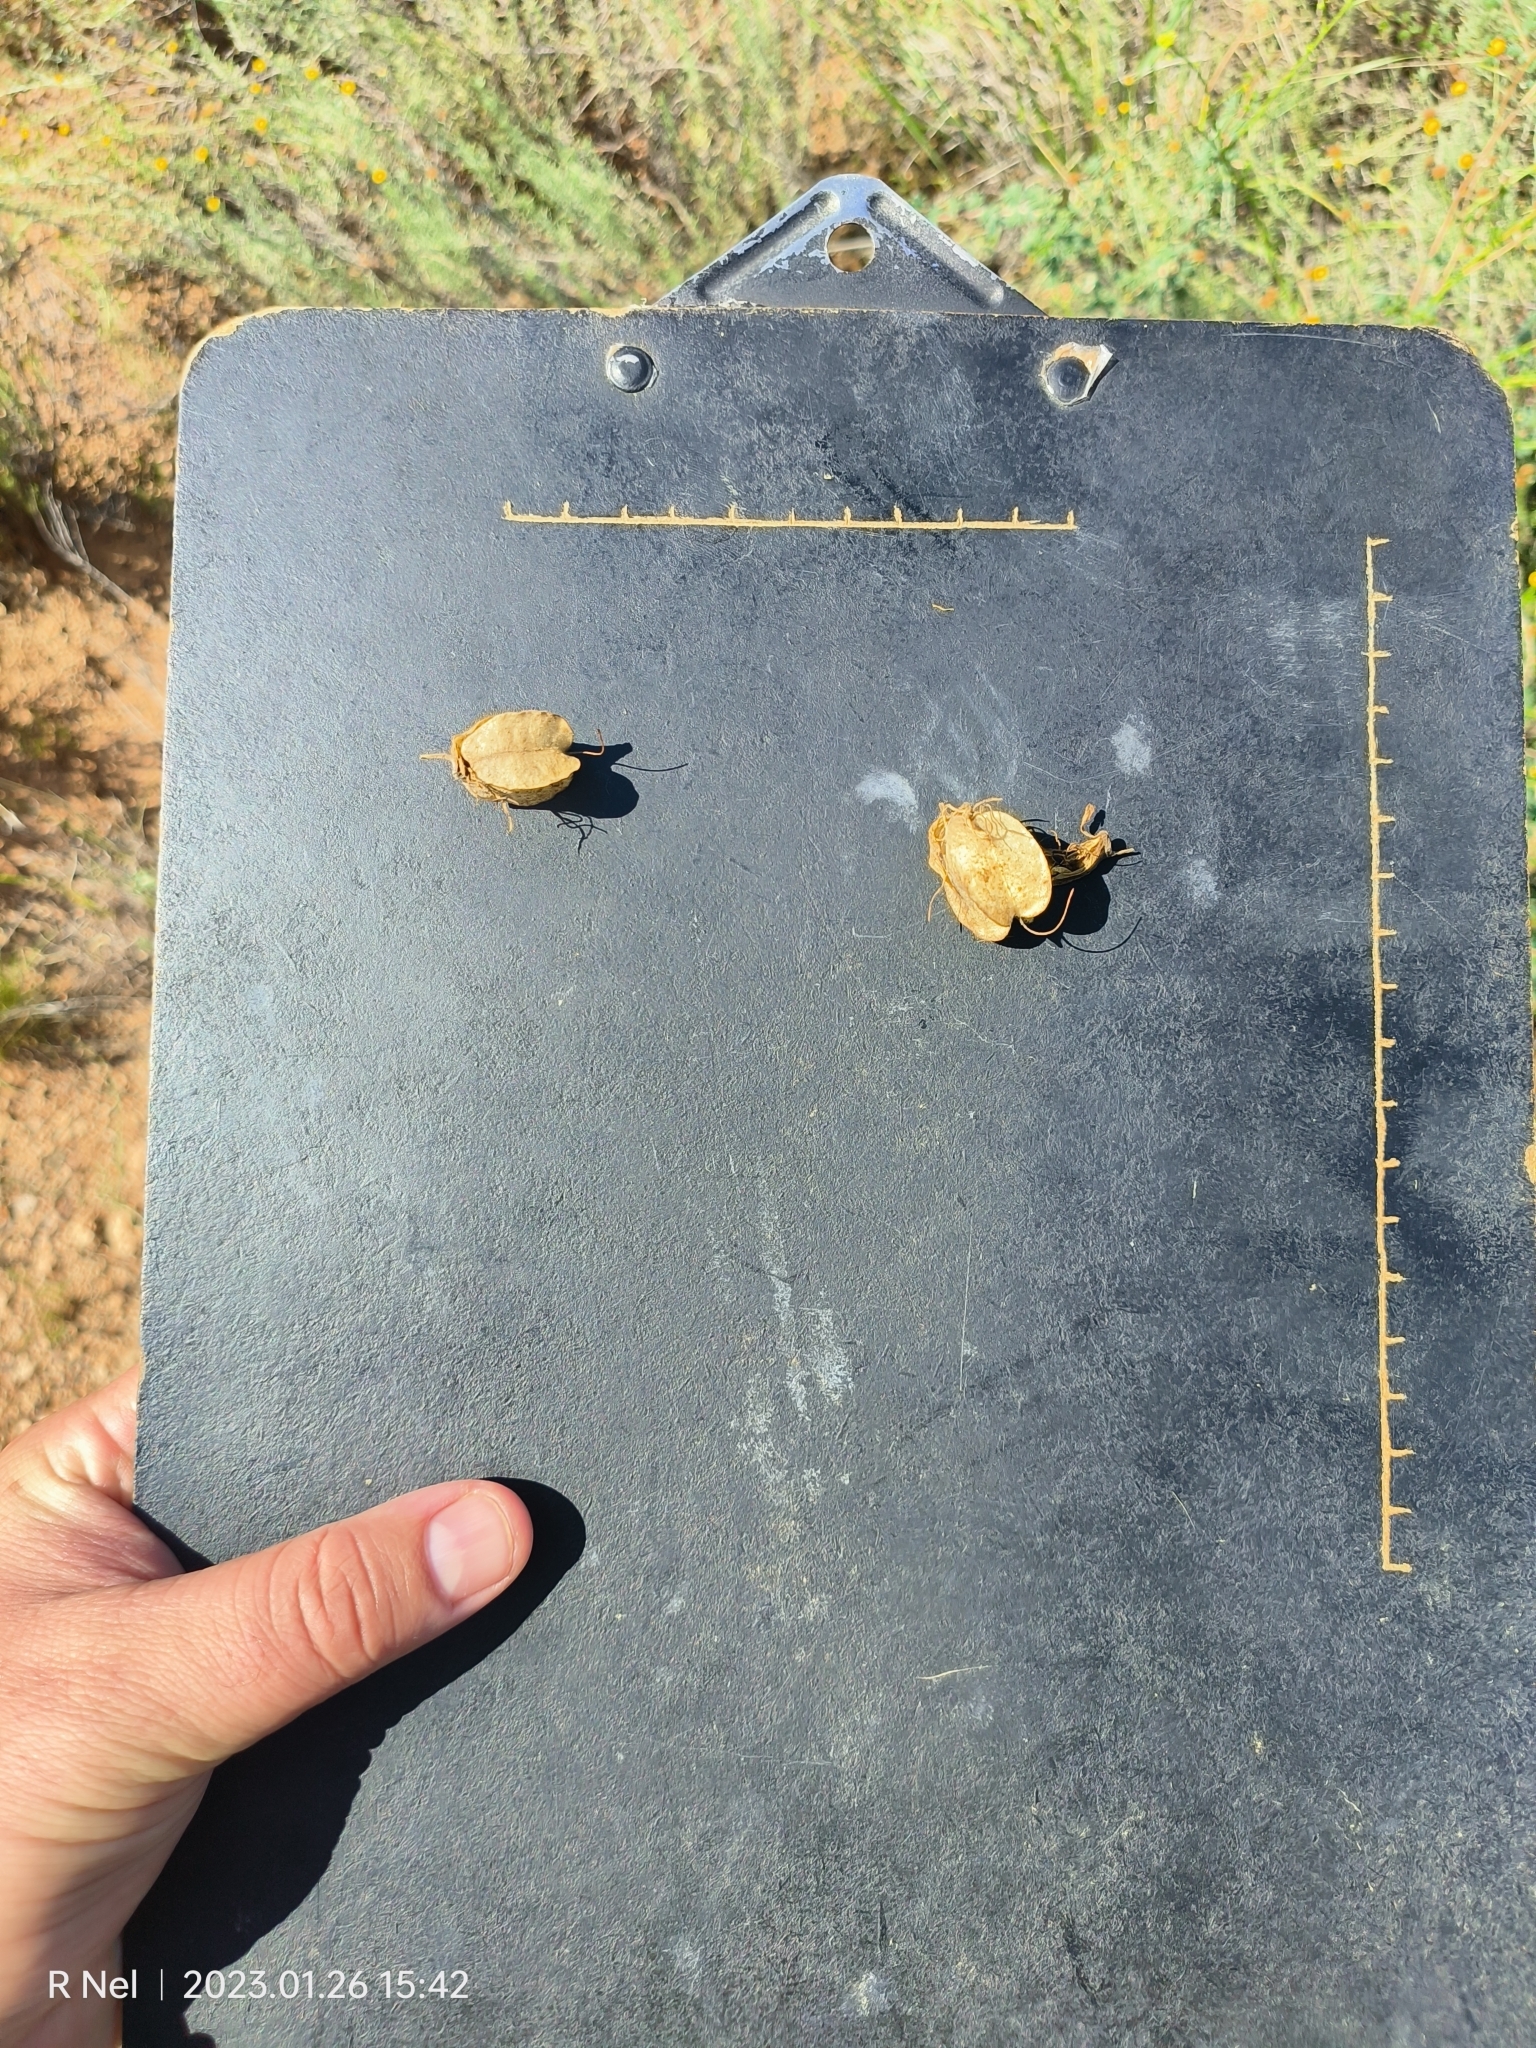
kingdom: Plantae
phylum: Tracheophyta
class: Magnoliopsida
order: Geraniales
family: Melianthaceae
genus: Melianthus
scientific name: Melianthus comosus
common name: Touch-me-not
